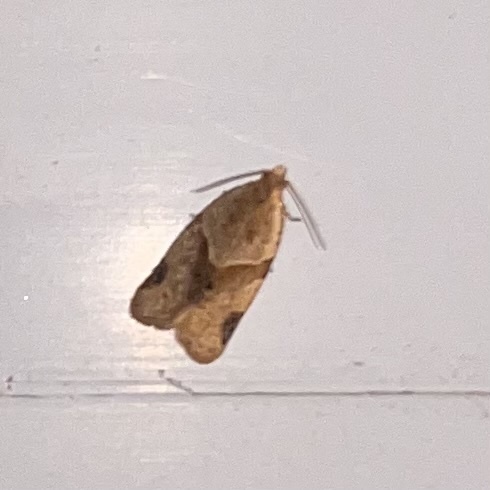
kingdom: Animalia
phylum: Arthropoda
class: Insecta
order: Lepidoptera
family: Tortricidae
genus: Clepsis
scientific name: Clepsis peritana
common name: Garden tortrix
